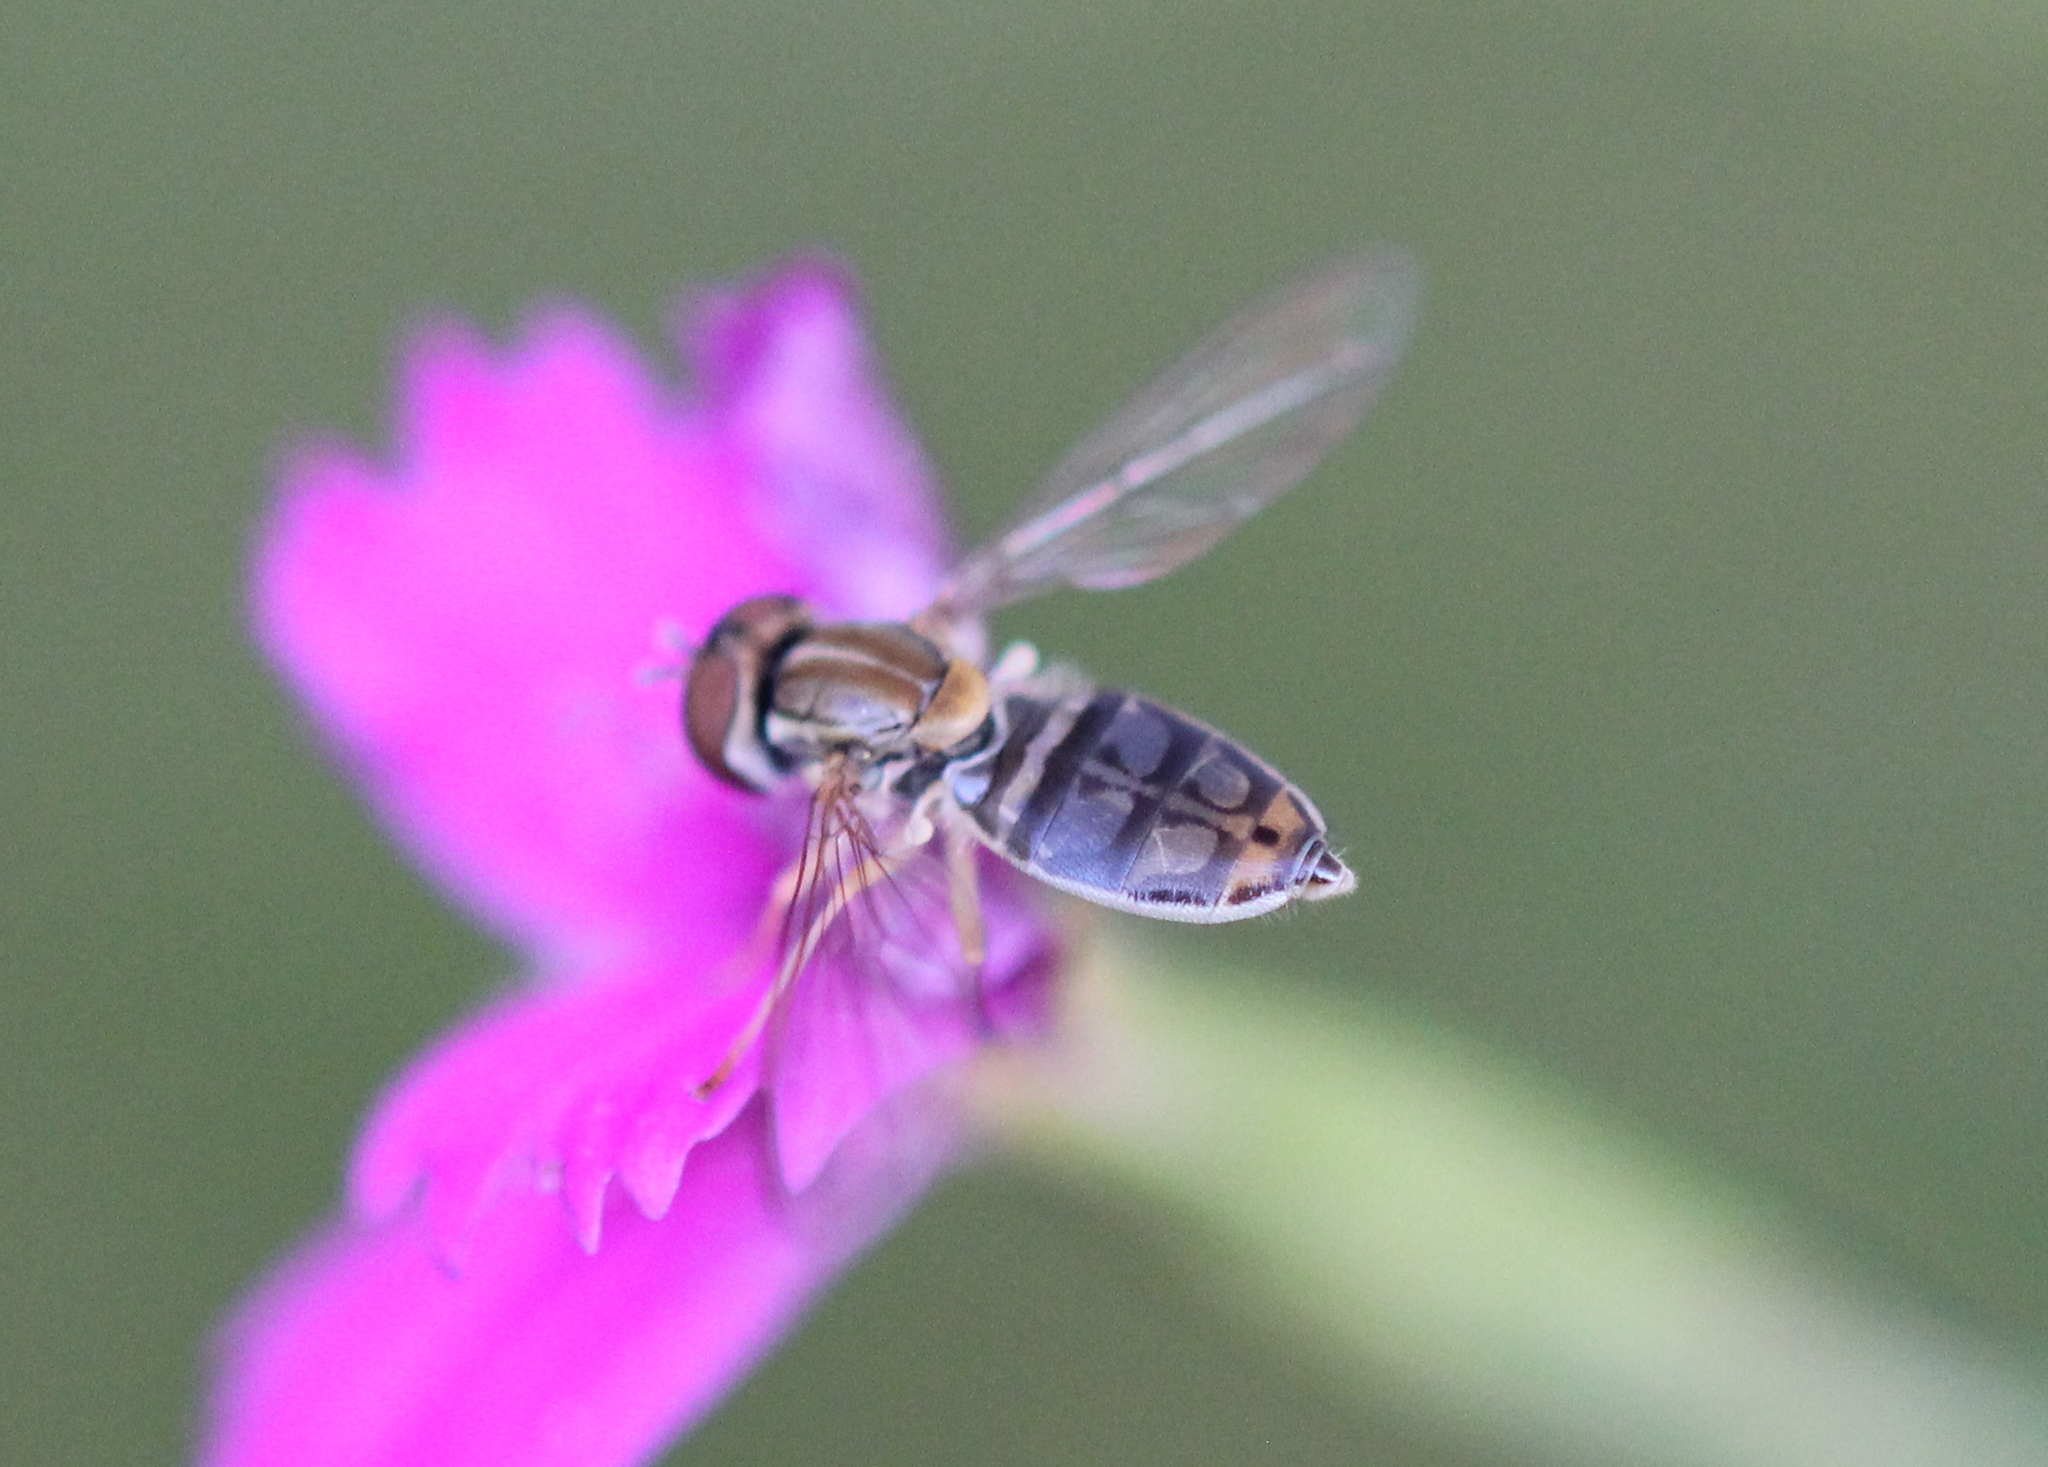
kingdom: Animalia
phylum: Arthropoda
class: Insecta
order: Diptera
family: Syrphidae
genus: Toxomerus
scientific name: Toxomerus marginatus
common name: Syrphid fly
